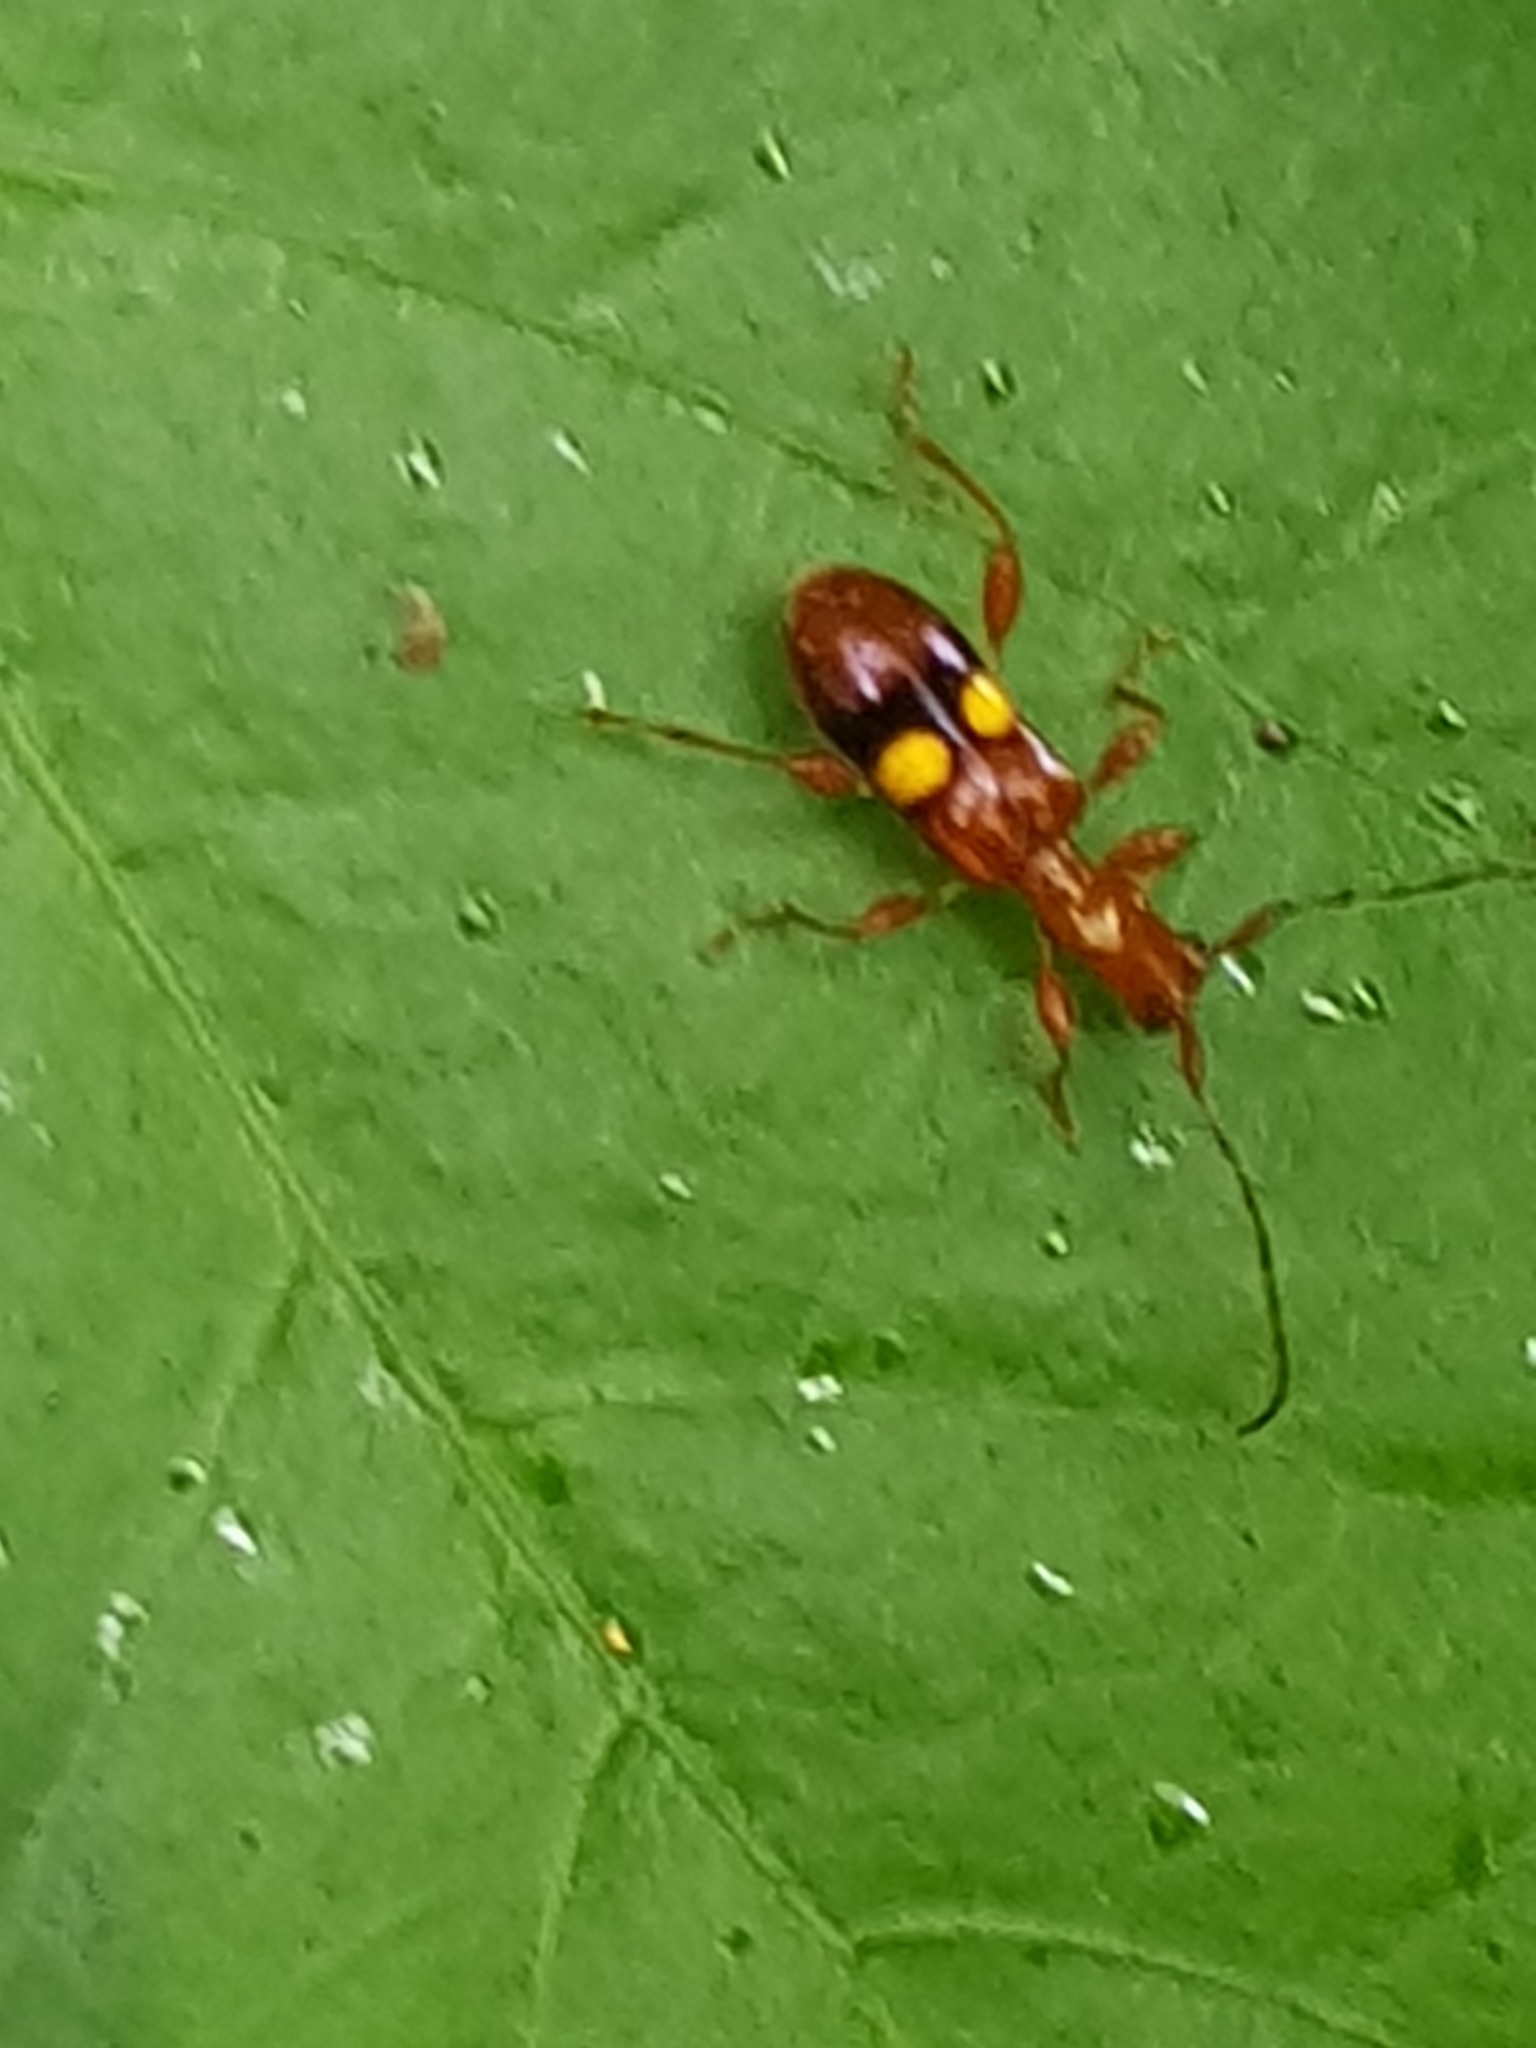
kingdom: Animalia
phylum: Arthropoda
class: Insecta
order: Coleoptera
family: Cerambycidae
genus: Zorion
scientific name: Zorion australe
